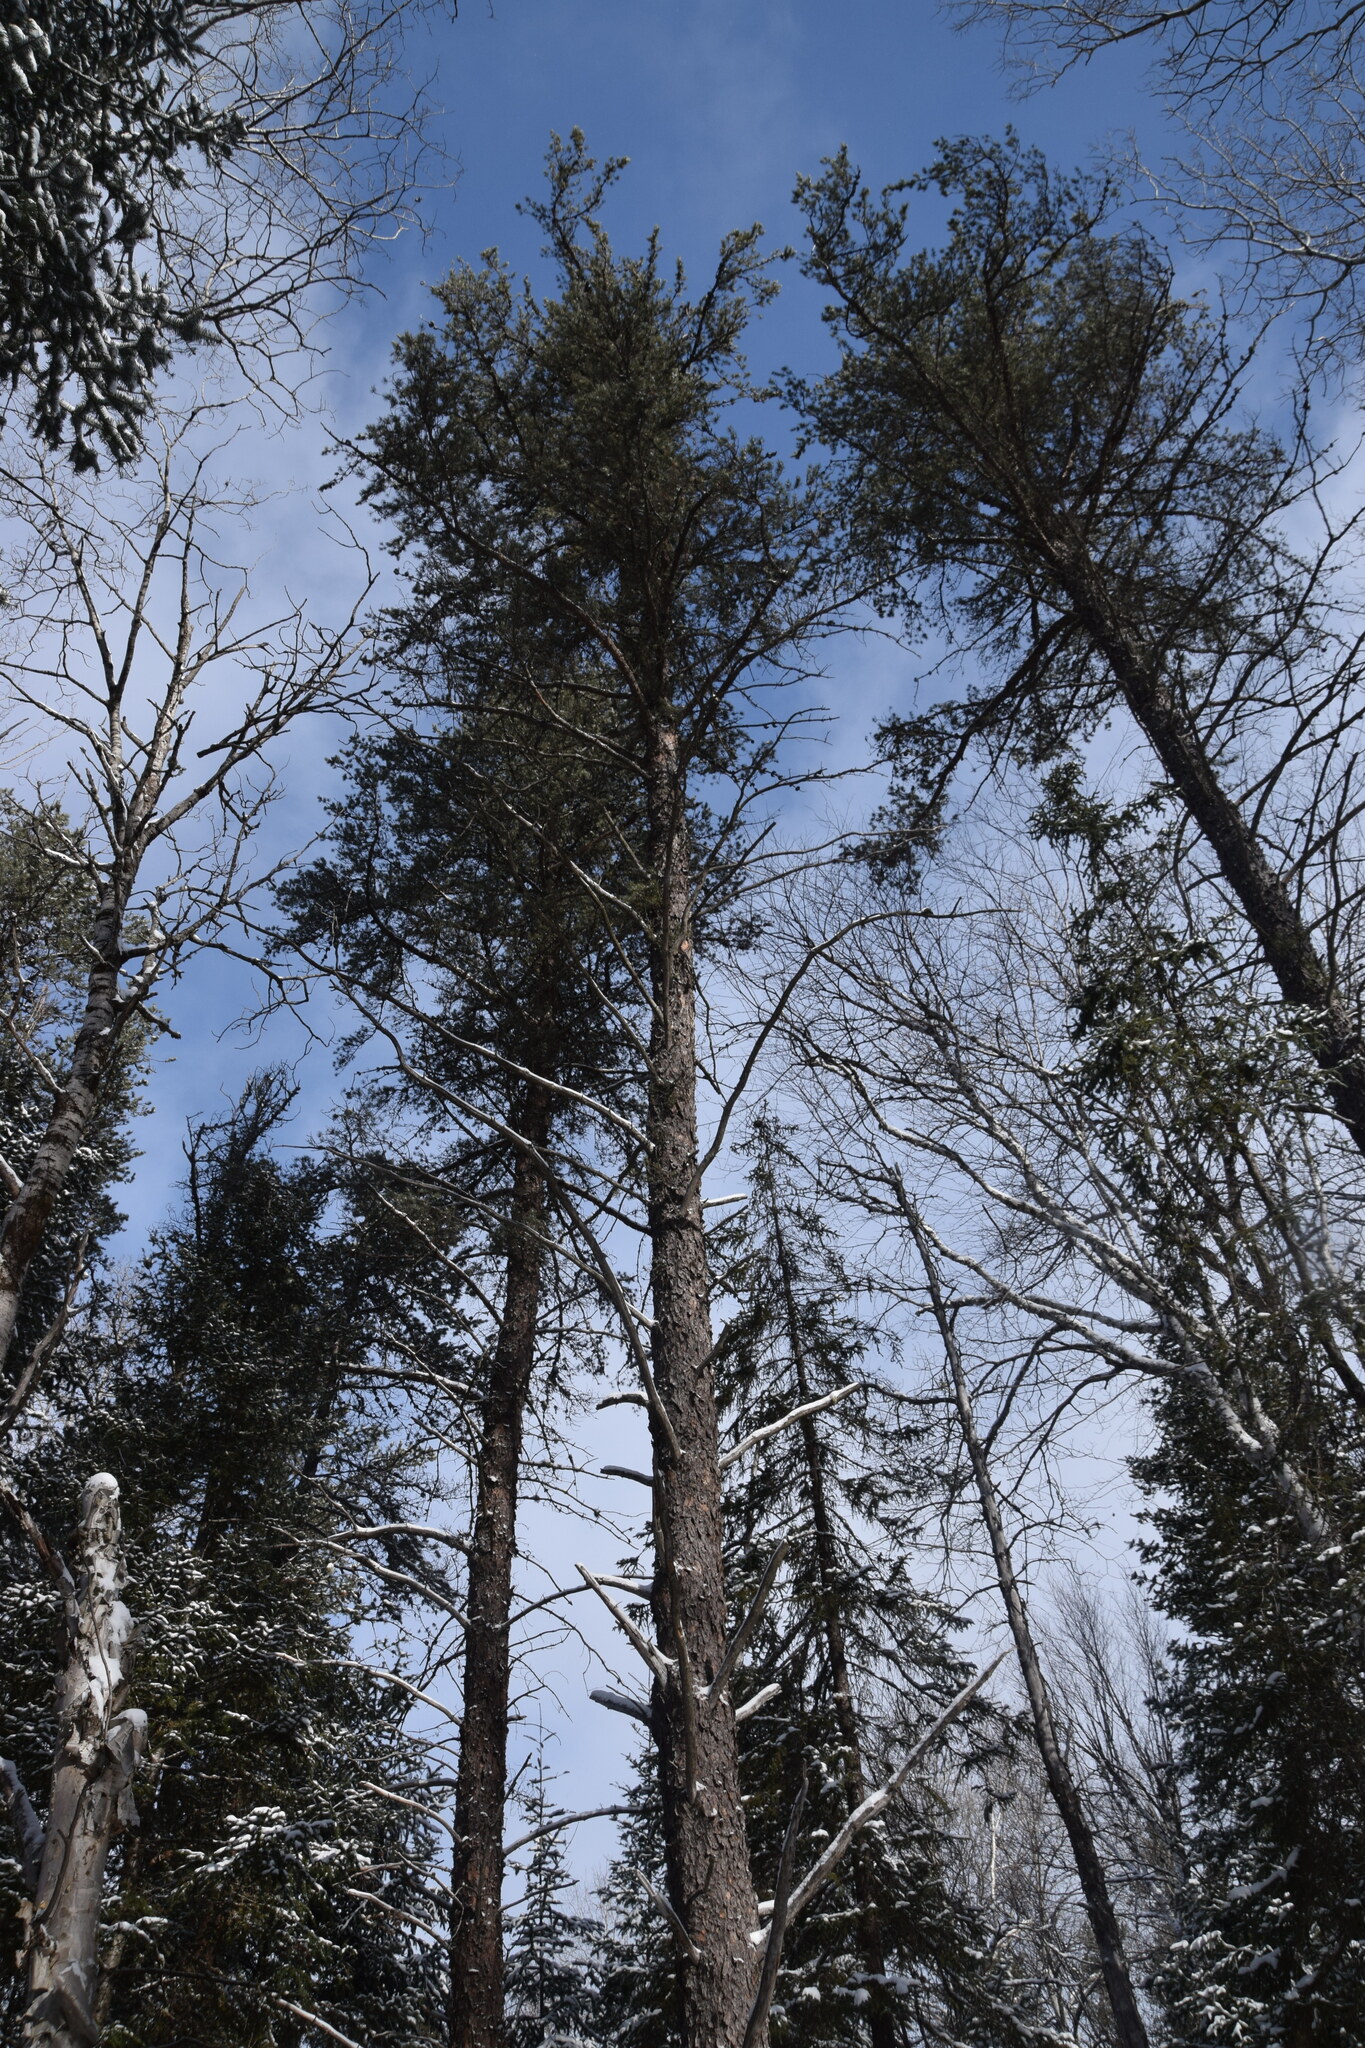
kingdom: Plantae
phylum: Tracheophyta
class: Pinopsida
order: Pinales
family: Pinaceae
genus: Pinus
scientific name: Pinus banksiana
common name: Jack pine
